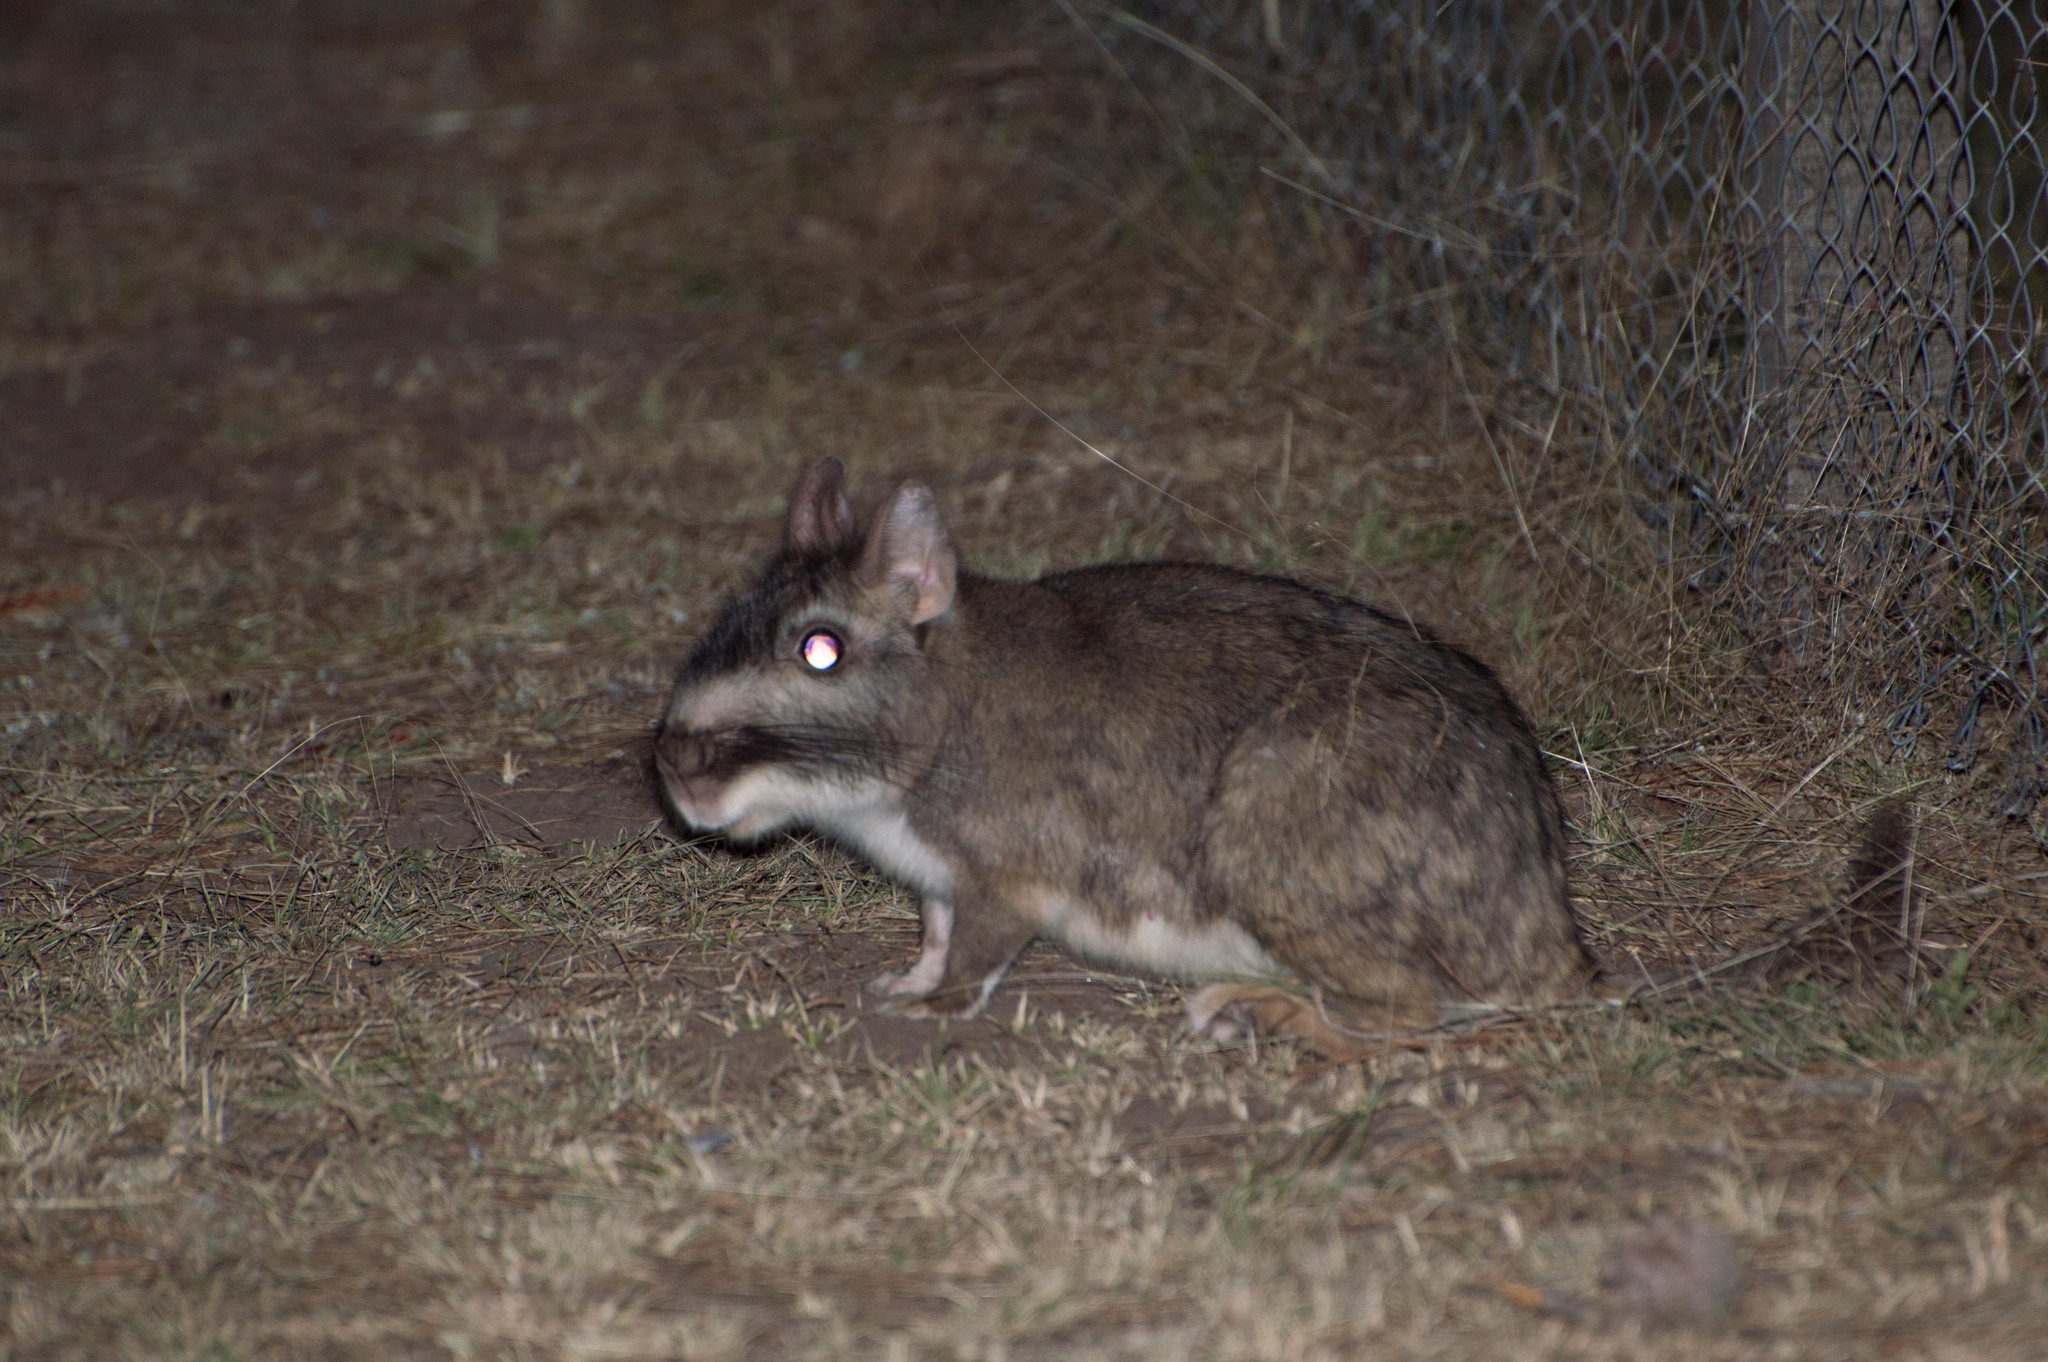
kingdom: Animalia
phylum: Chordata
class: Mammalia
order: Rodentia
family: Chinchillidae
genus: Lagostomus
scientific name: Lagostomus maximus
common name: Plains viscacha
